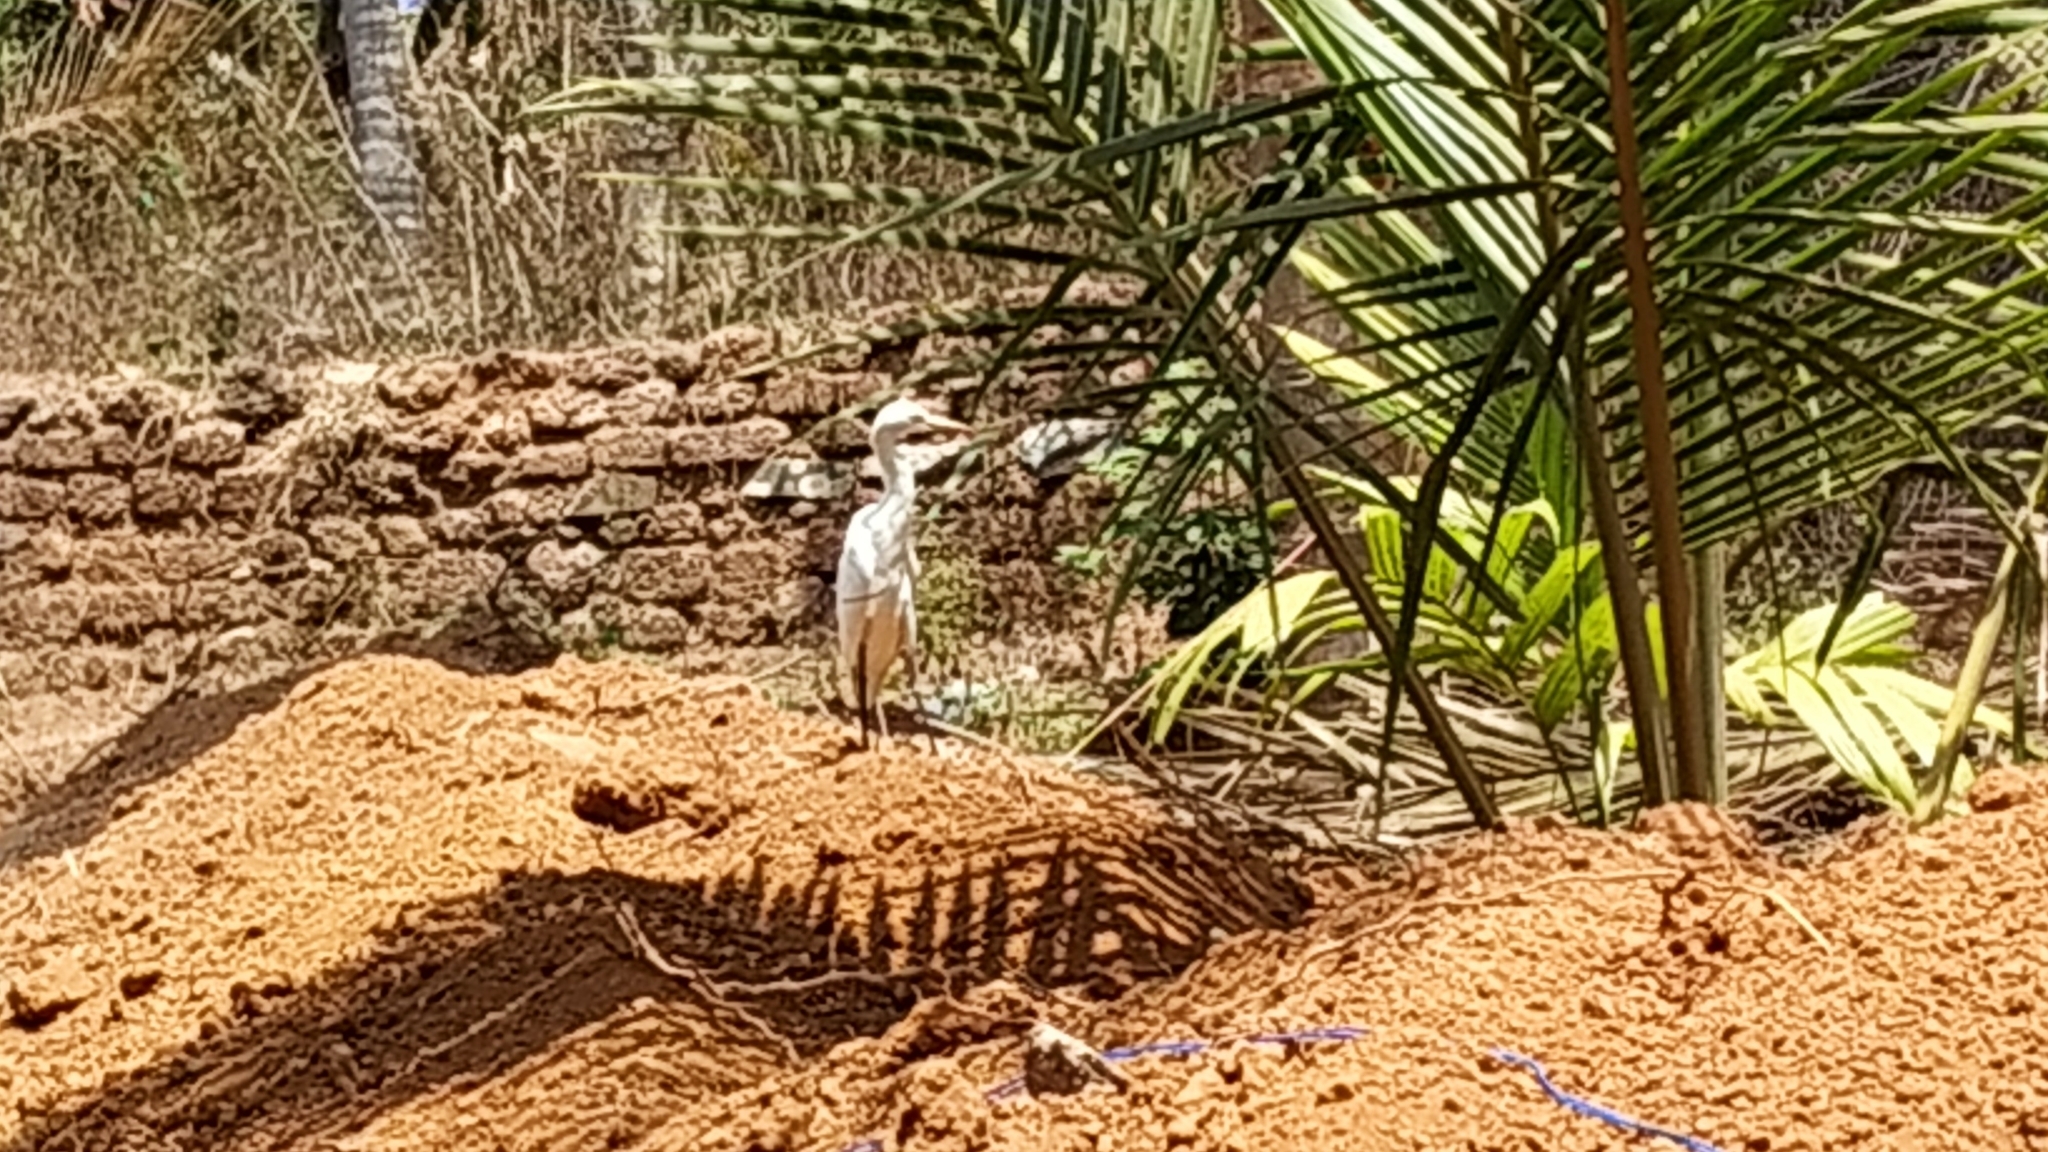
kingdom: Animalia
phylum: Chordata
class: Aves
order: Pelecaniformes
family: Ardeidae
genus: Bubulcus
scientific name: Bubulcus coromandus
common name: Eastern cattle egret
